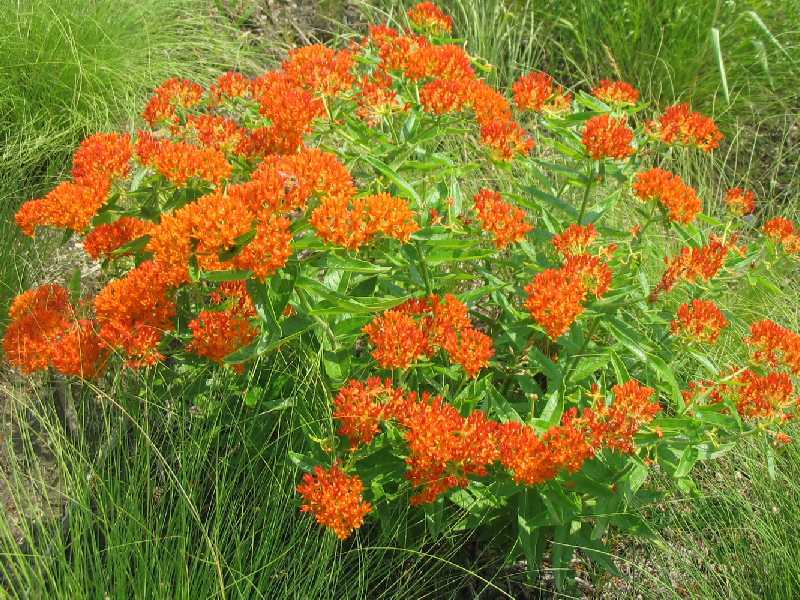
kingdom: Plantae
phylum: Tracheophyta
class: Magnoliopsida
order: Gentianales
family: Apocynaceae
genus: Asclepias
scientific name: Asclepias tuberosa
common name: Butterfly milkweed
